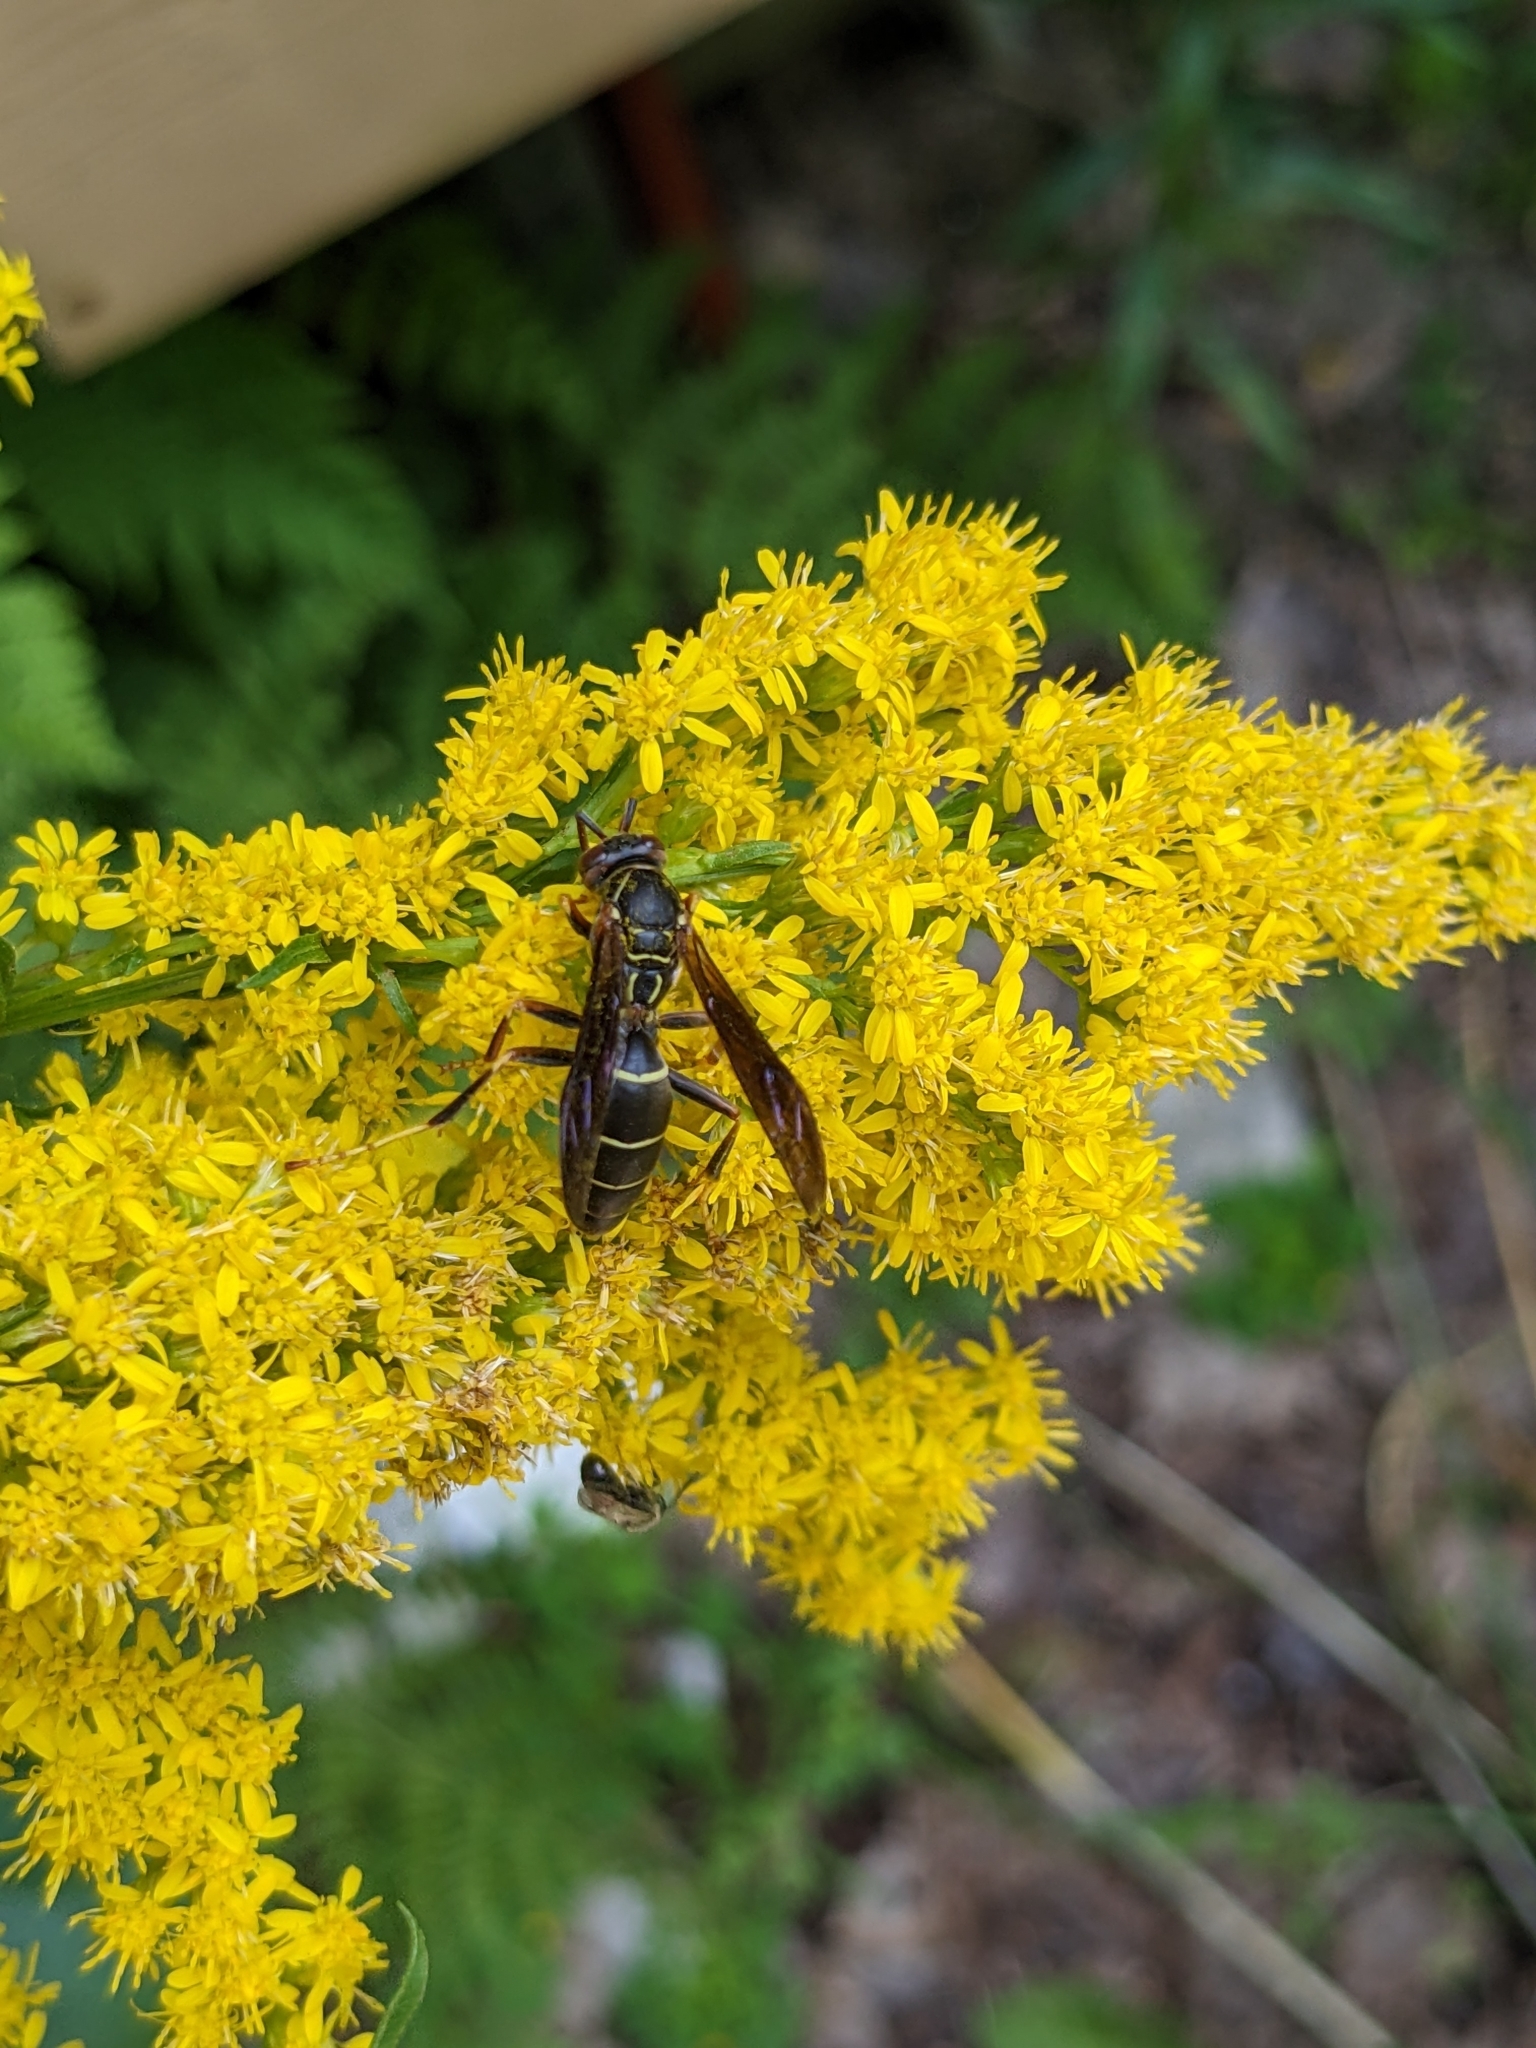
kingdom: Animalia
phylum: Arthropoda
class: Insecta
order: Hymenoptera
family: Eumenidae
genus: Polistes
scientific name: Polistes fuscatus
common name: Dark paper wasp
